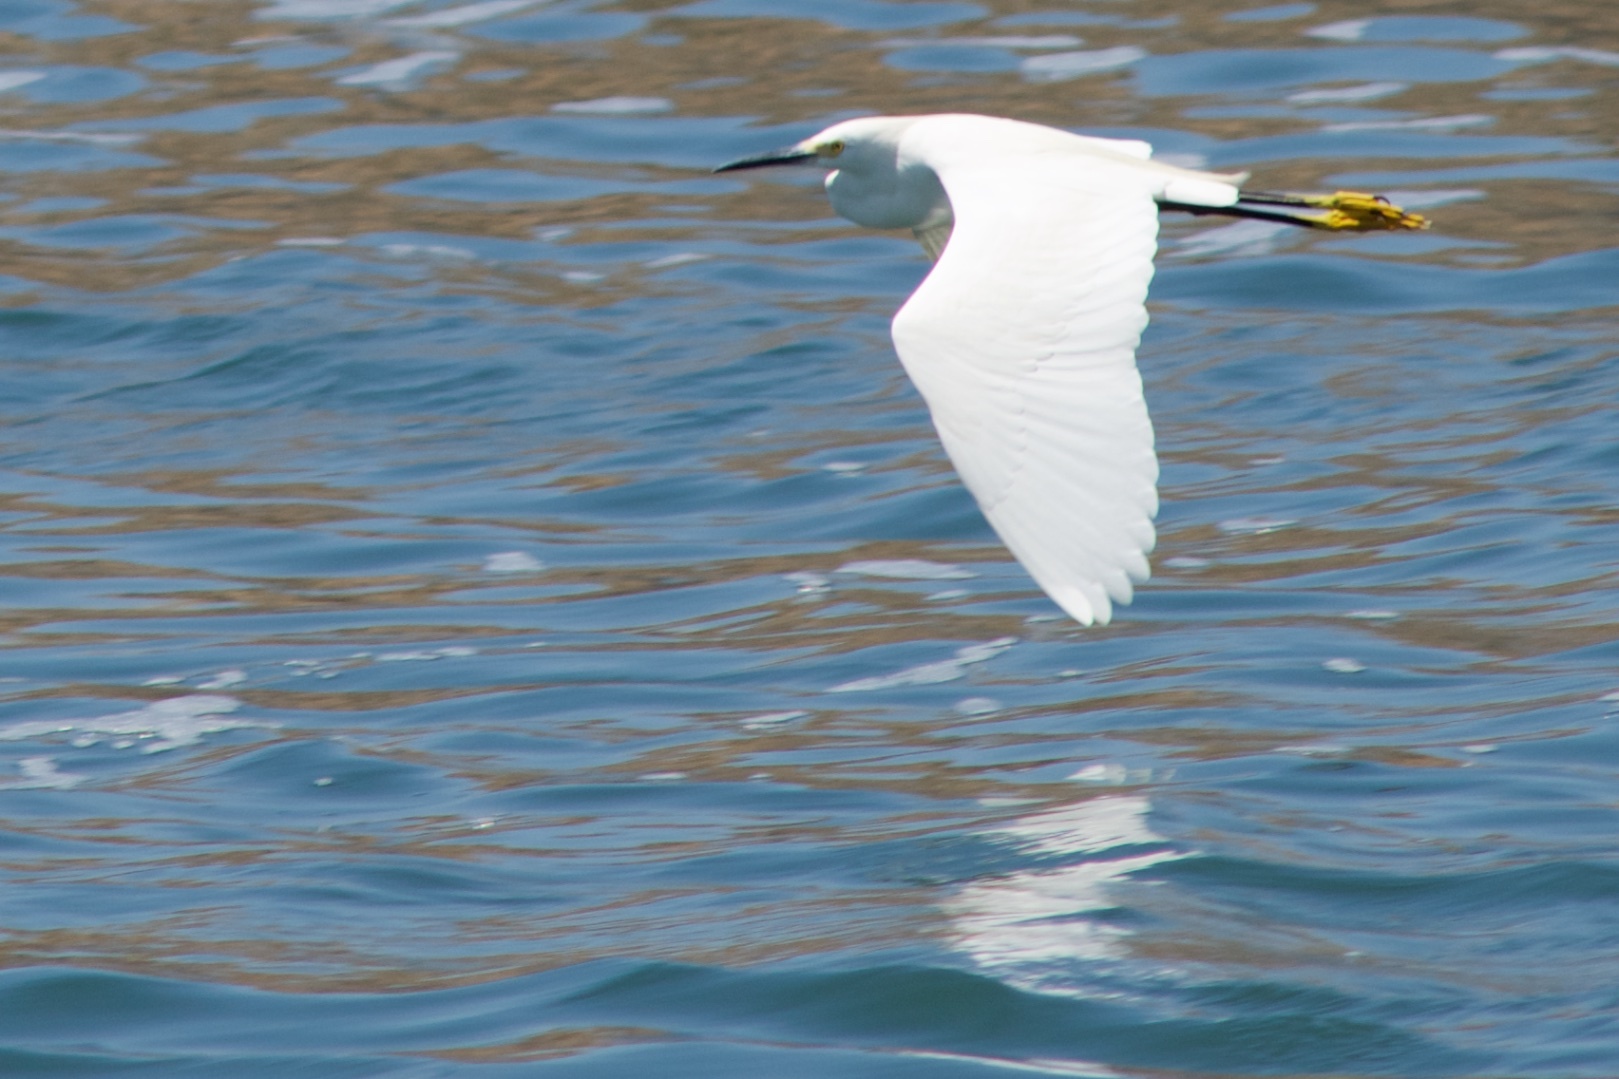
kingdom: Animalia
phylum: Chordata
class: Aves
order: Pelecaniformes
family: Ardeidae
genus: Egretta
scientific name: Egretta thula
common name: Snowy egret
